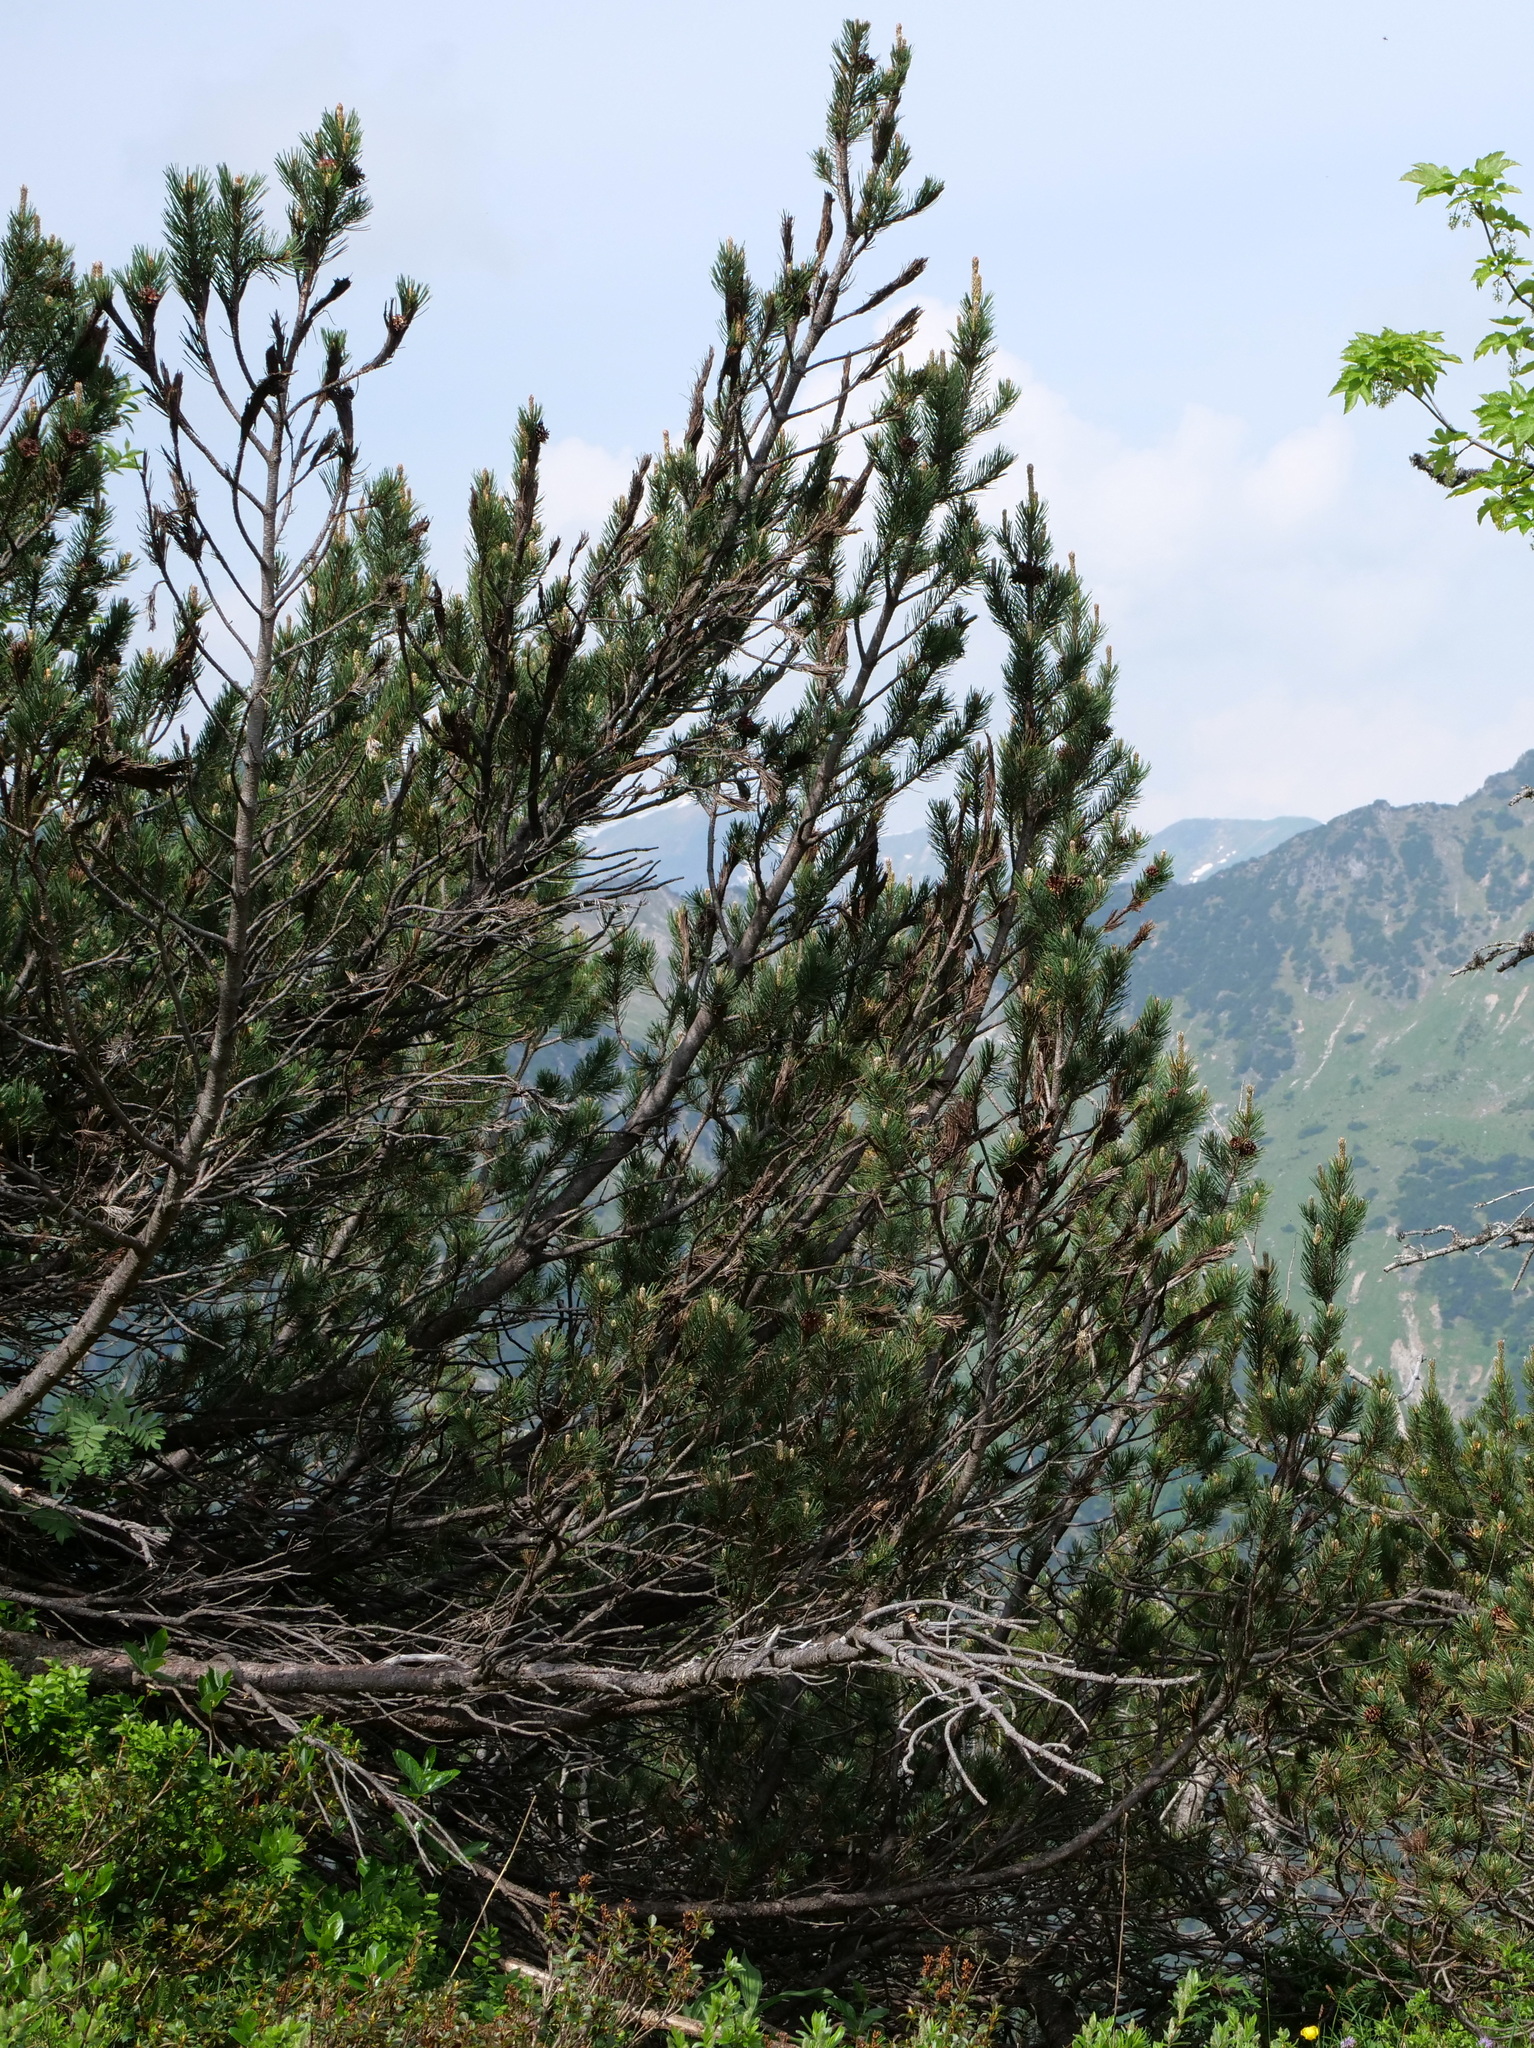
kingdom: Plantae
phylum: Tracheophyta
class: Pinopsida
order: Pinales
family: Pinaceae
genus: Pinus
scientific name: Pinus mugo
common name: Mugo pine
